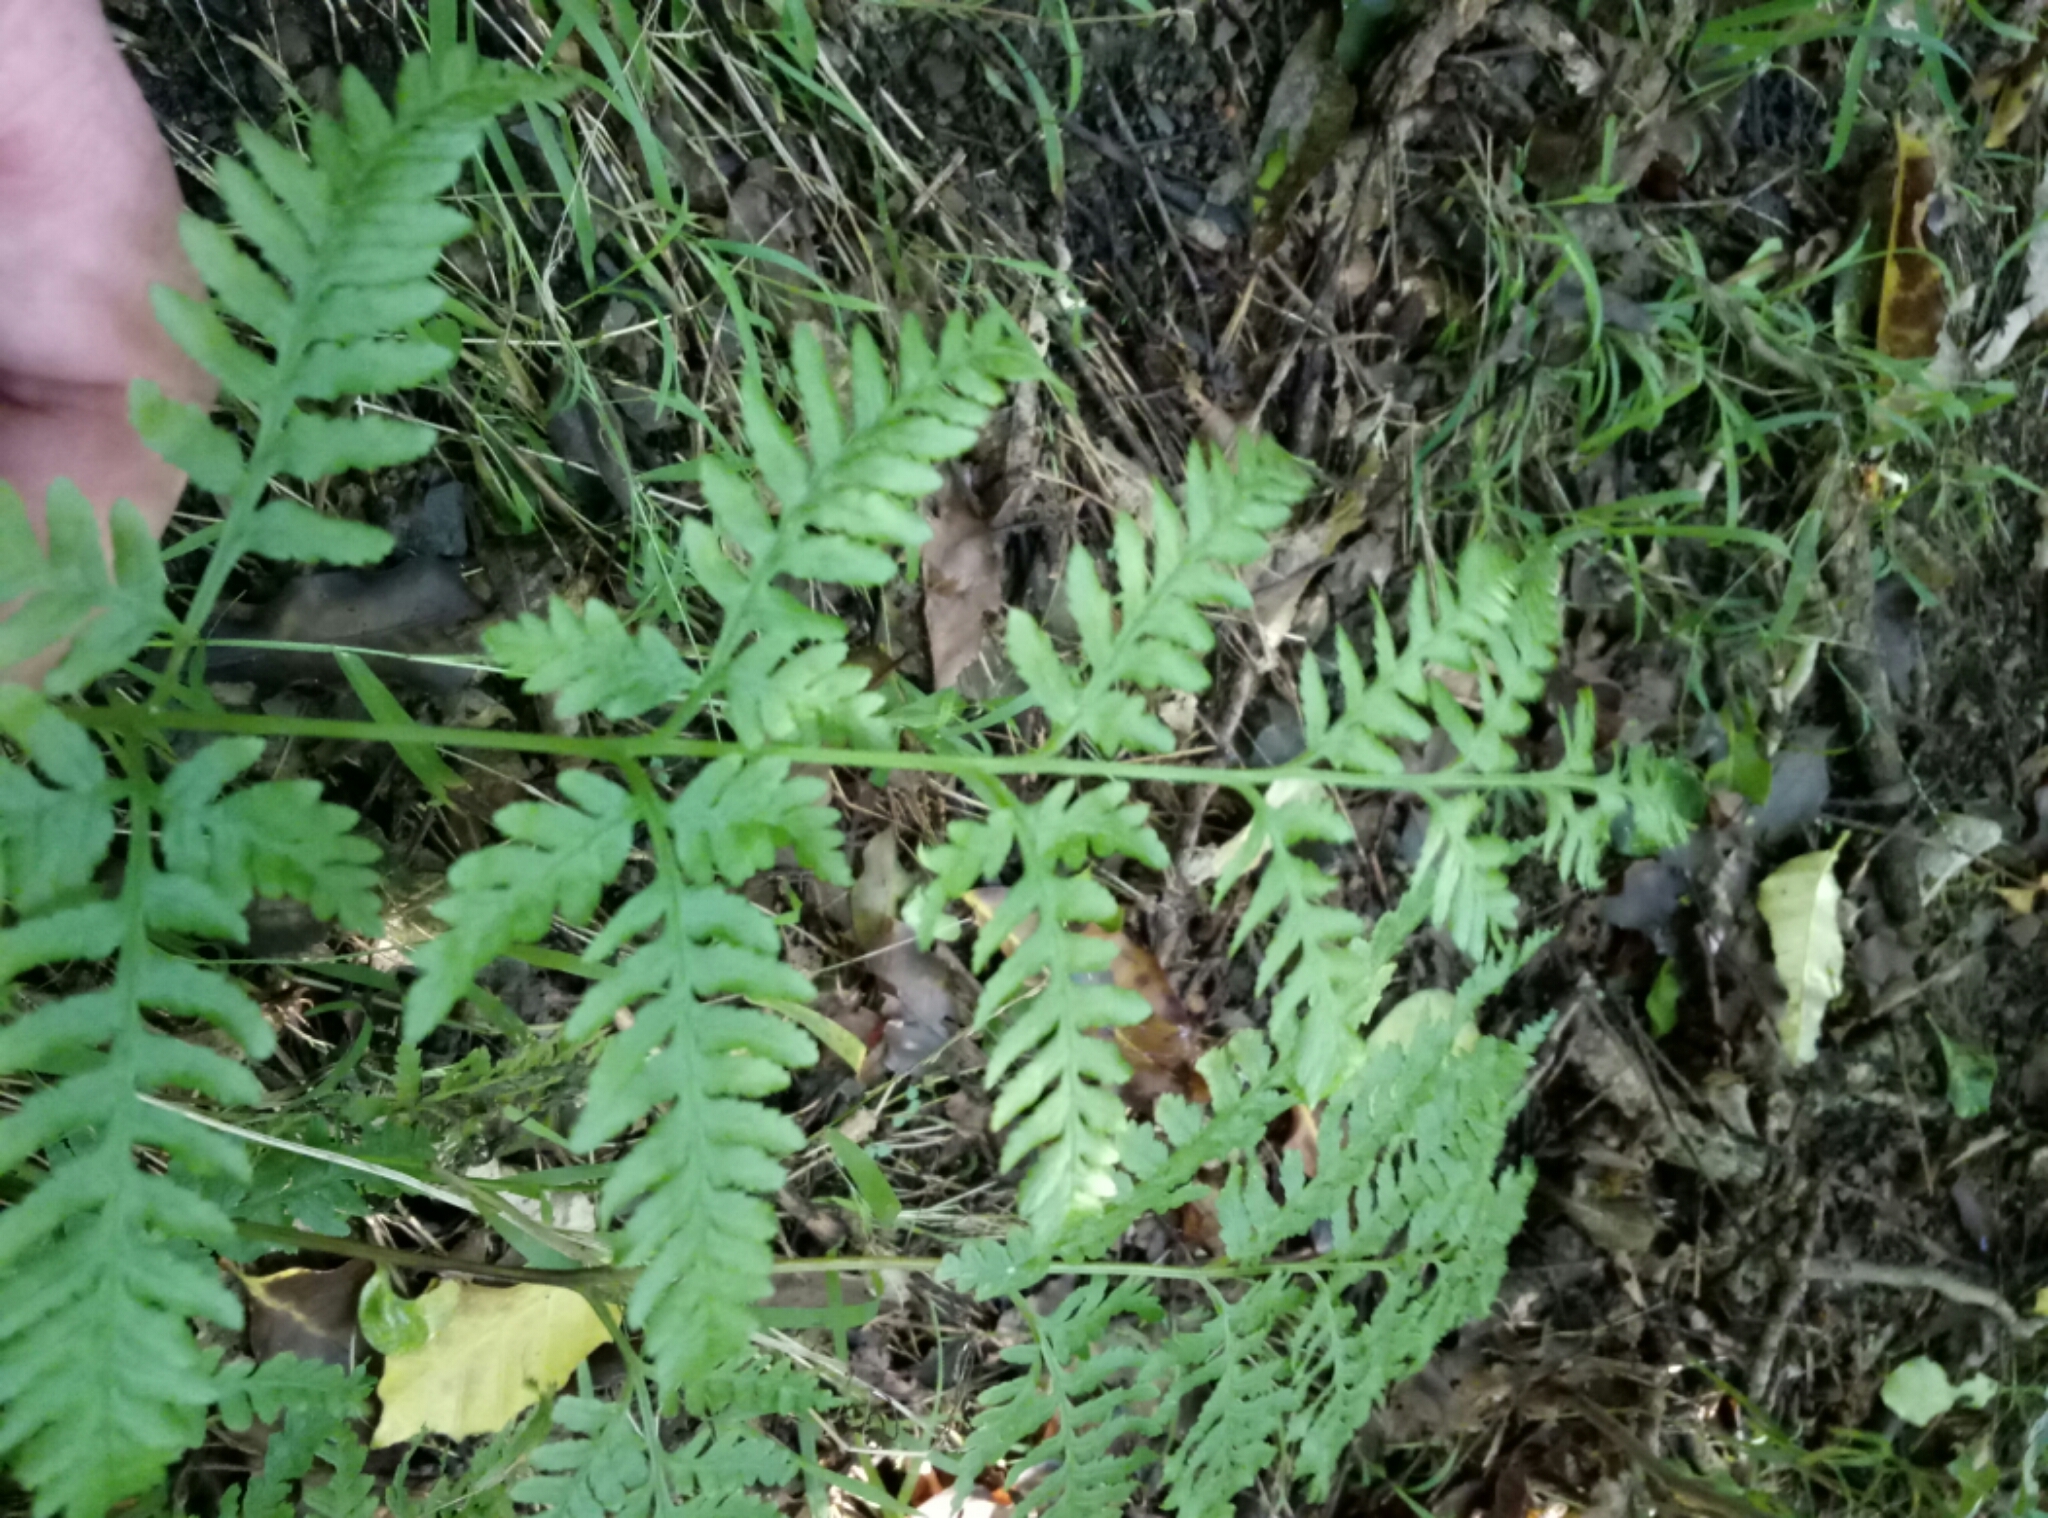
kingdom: Plantae
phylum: Tracheophyta
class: Polypodiopsida
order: Polypodiales
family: Pteridaceae
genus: Pteris
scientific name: Pteris tremula
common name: Australian brake
